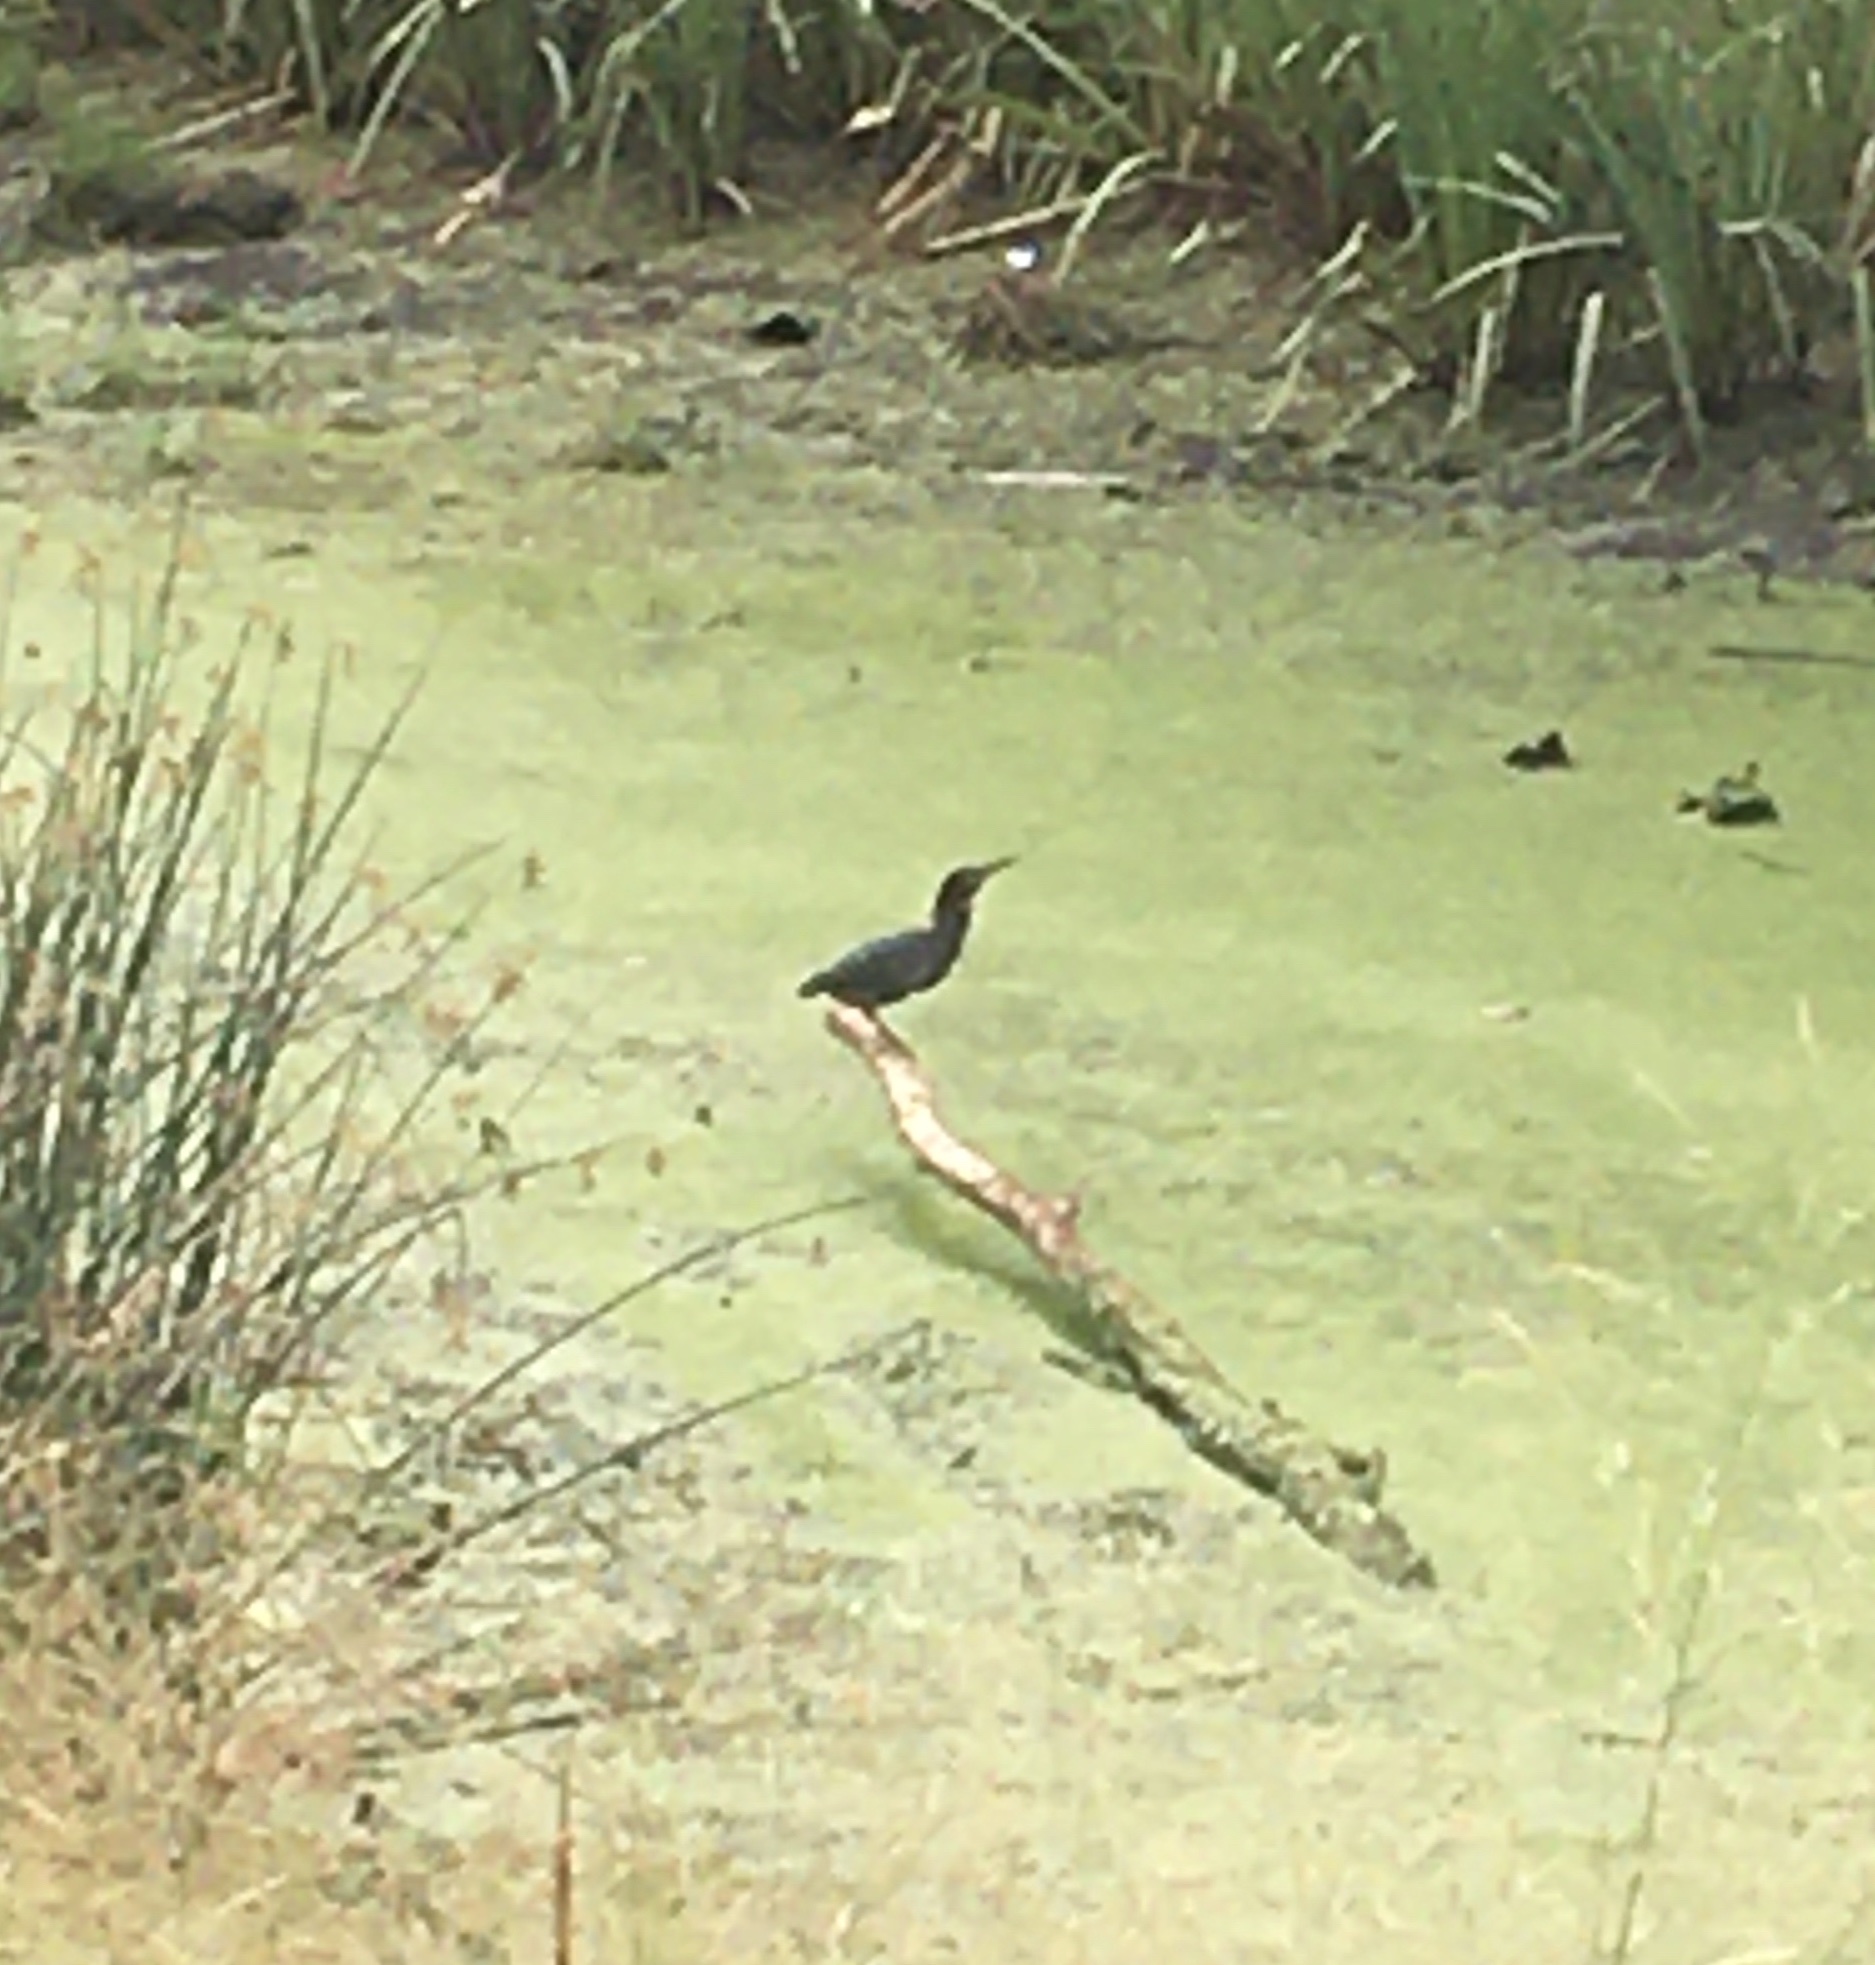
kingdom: Animalia
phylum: Chordata
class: Aves
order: Pelecaniformes
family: Ardeidae
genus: Butorides
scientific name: Butorides virescens
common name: Green heron
